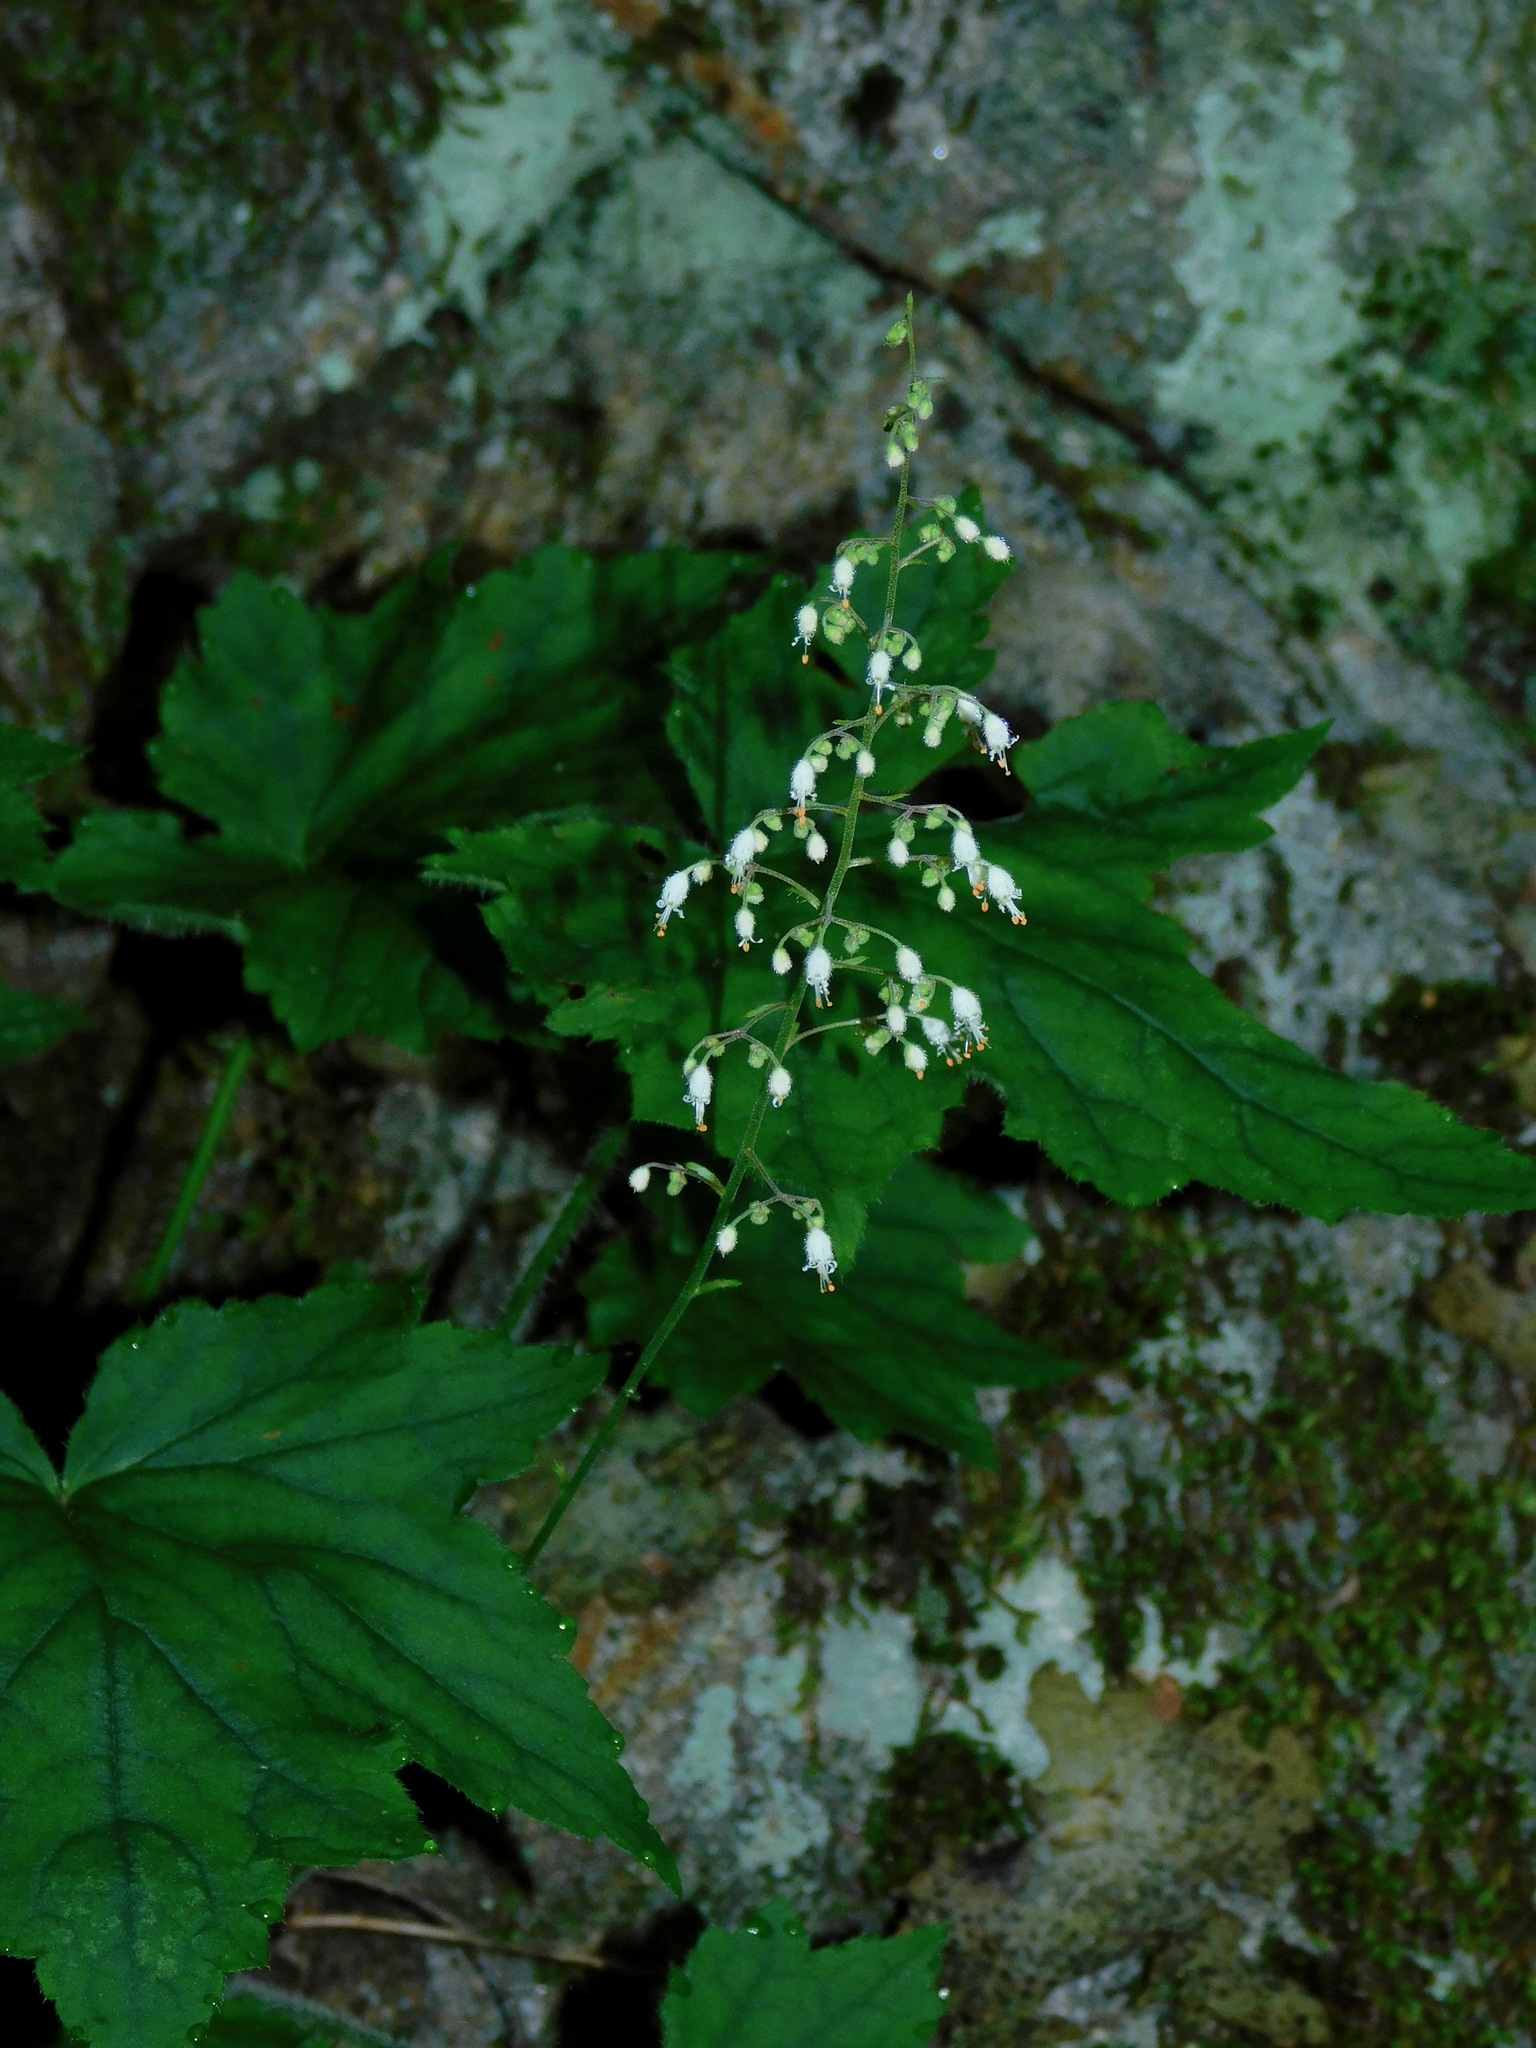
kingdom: Plantae
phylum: Tracheophyta
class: Magnoliopsida
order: Saxifragales
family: Saxifragaceae
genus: Heuchera
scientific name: Heuchera villosa
